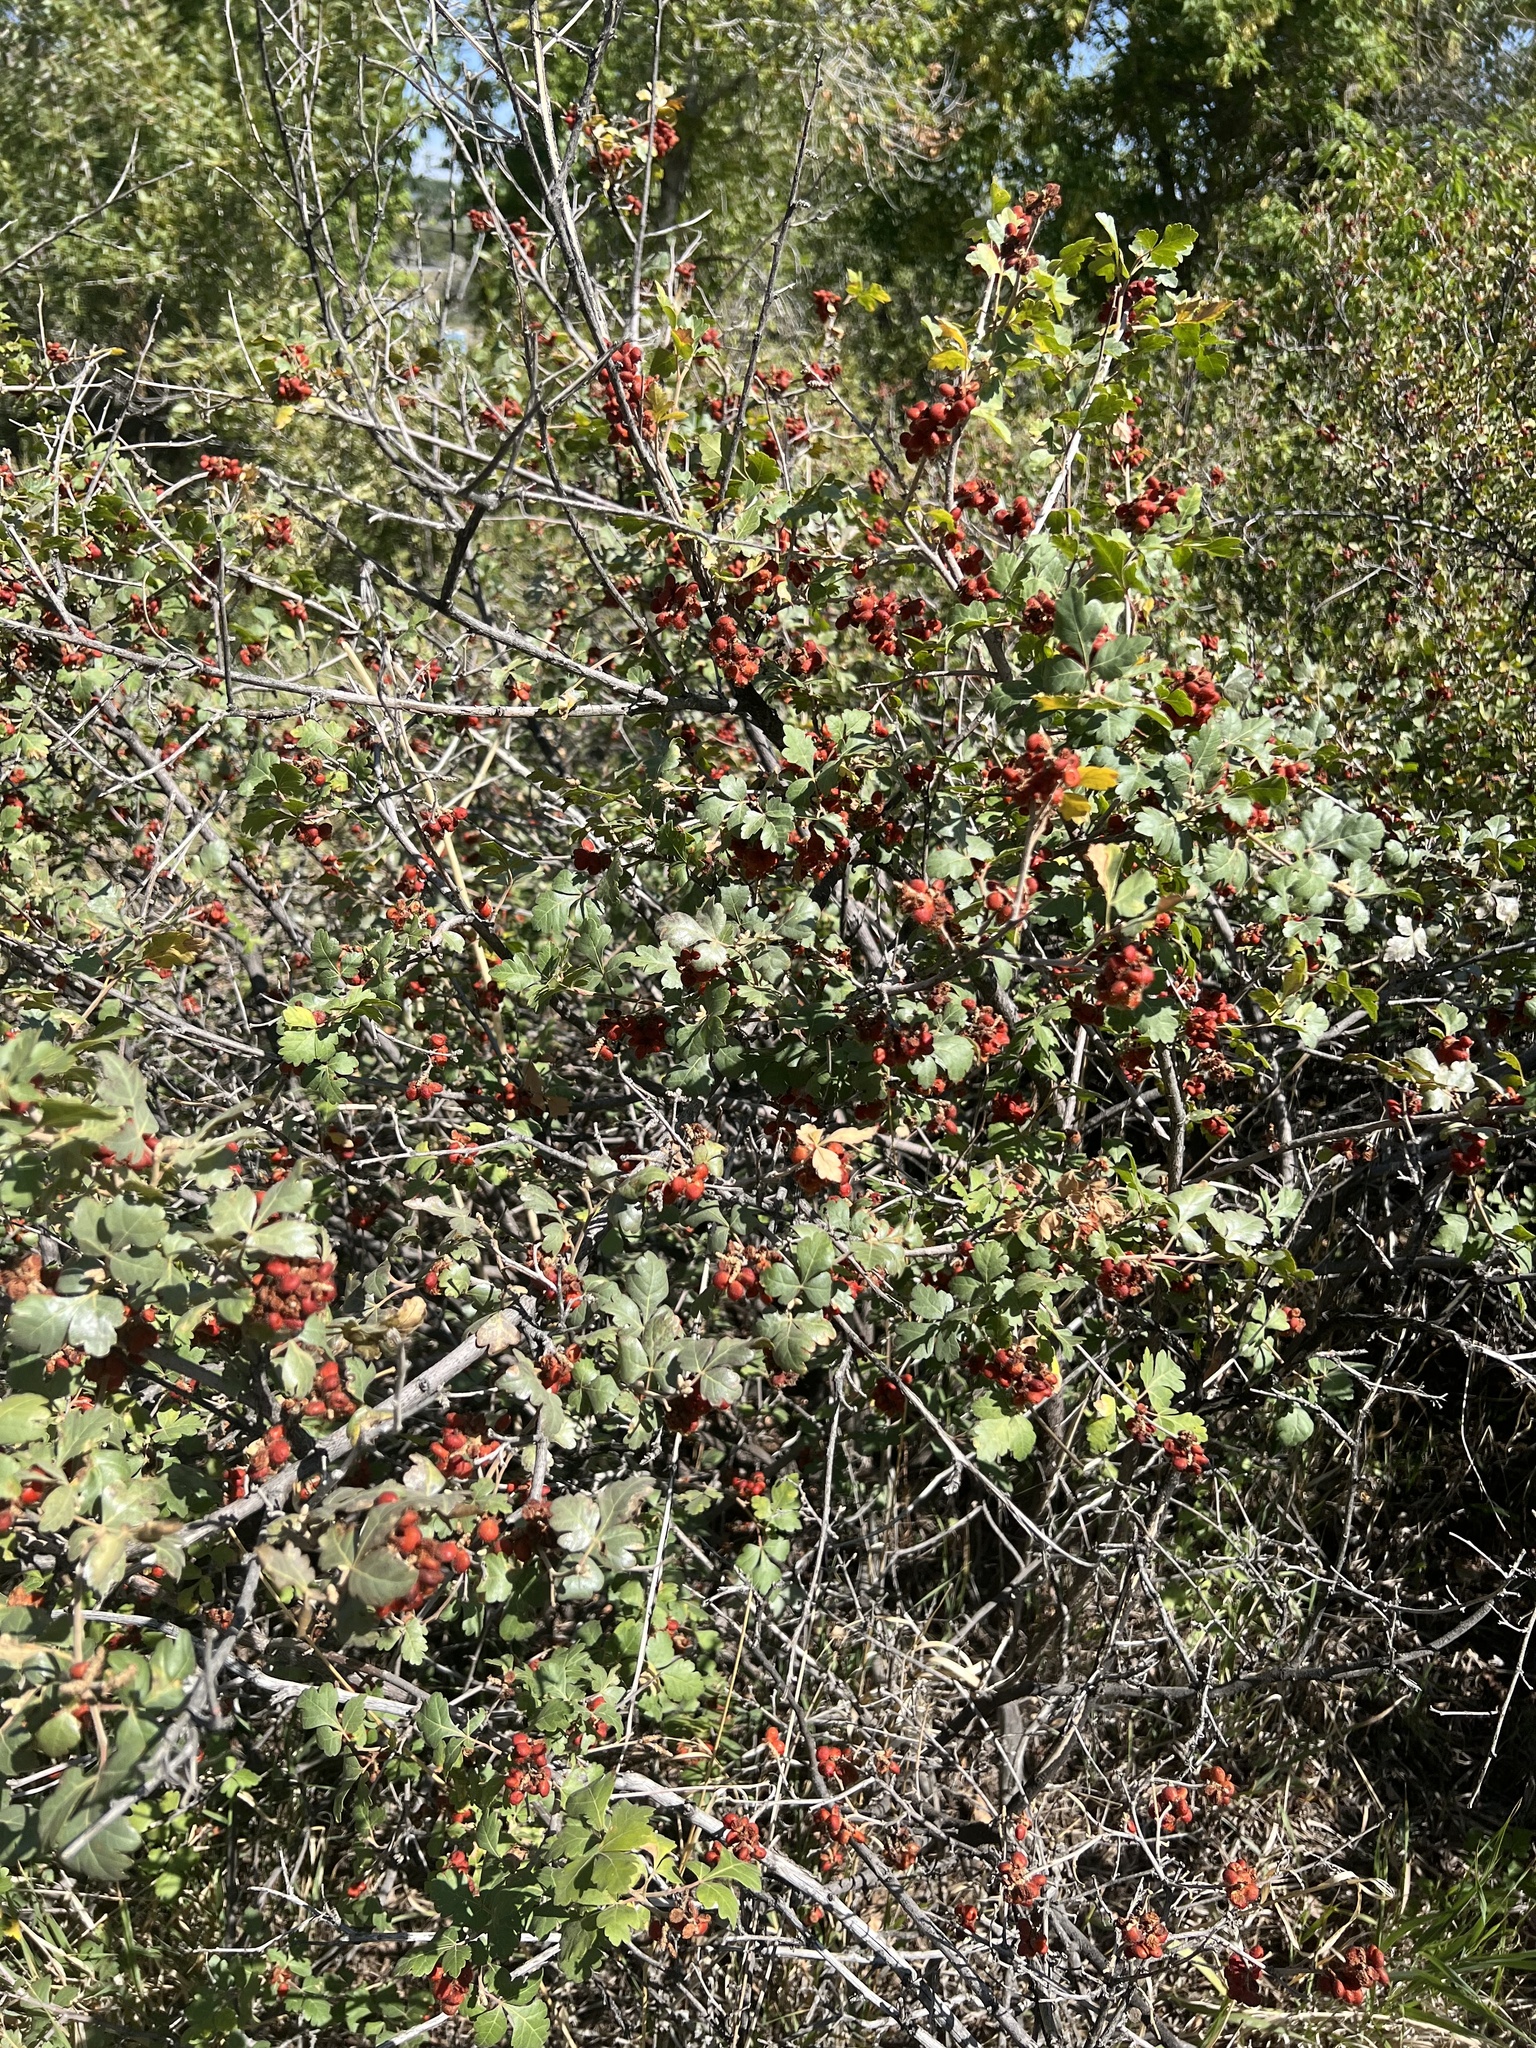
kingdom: Plantae
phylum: Tracheophyta
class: Magnoliopsida
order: Sapindales
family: Anacardiaceae
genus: Rhus
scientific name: Rhus trilobata
